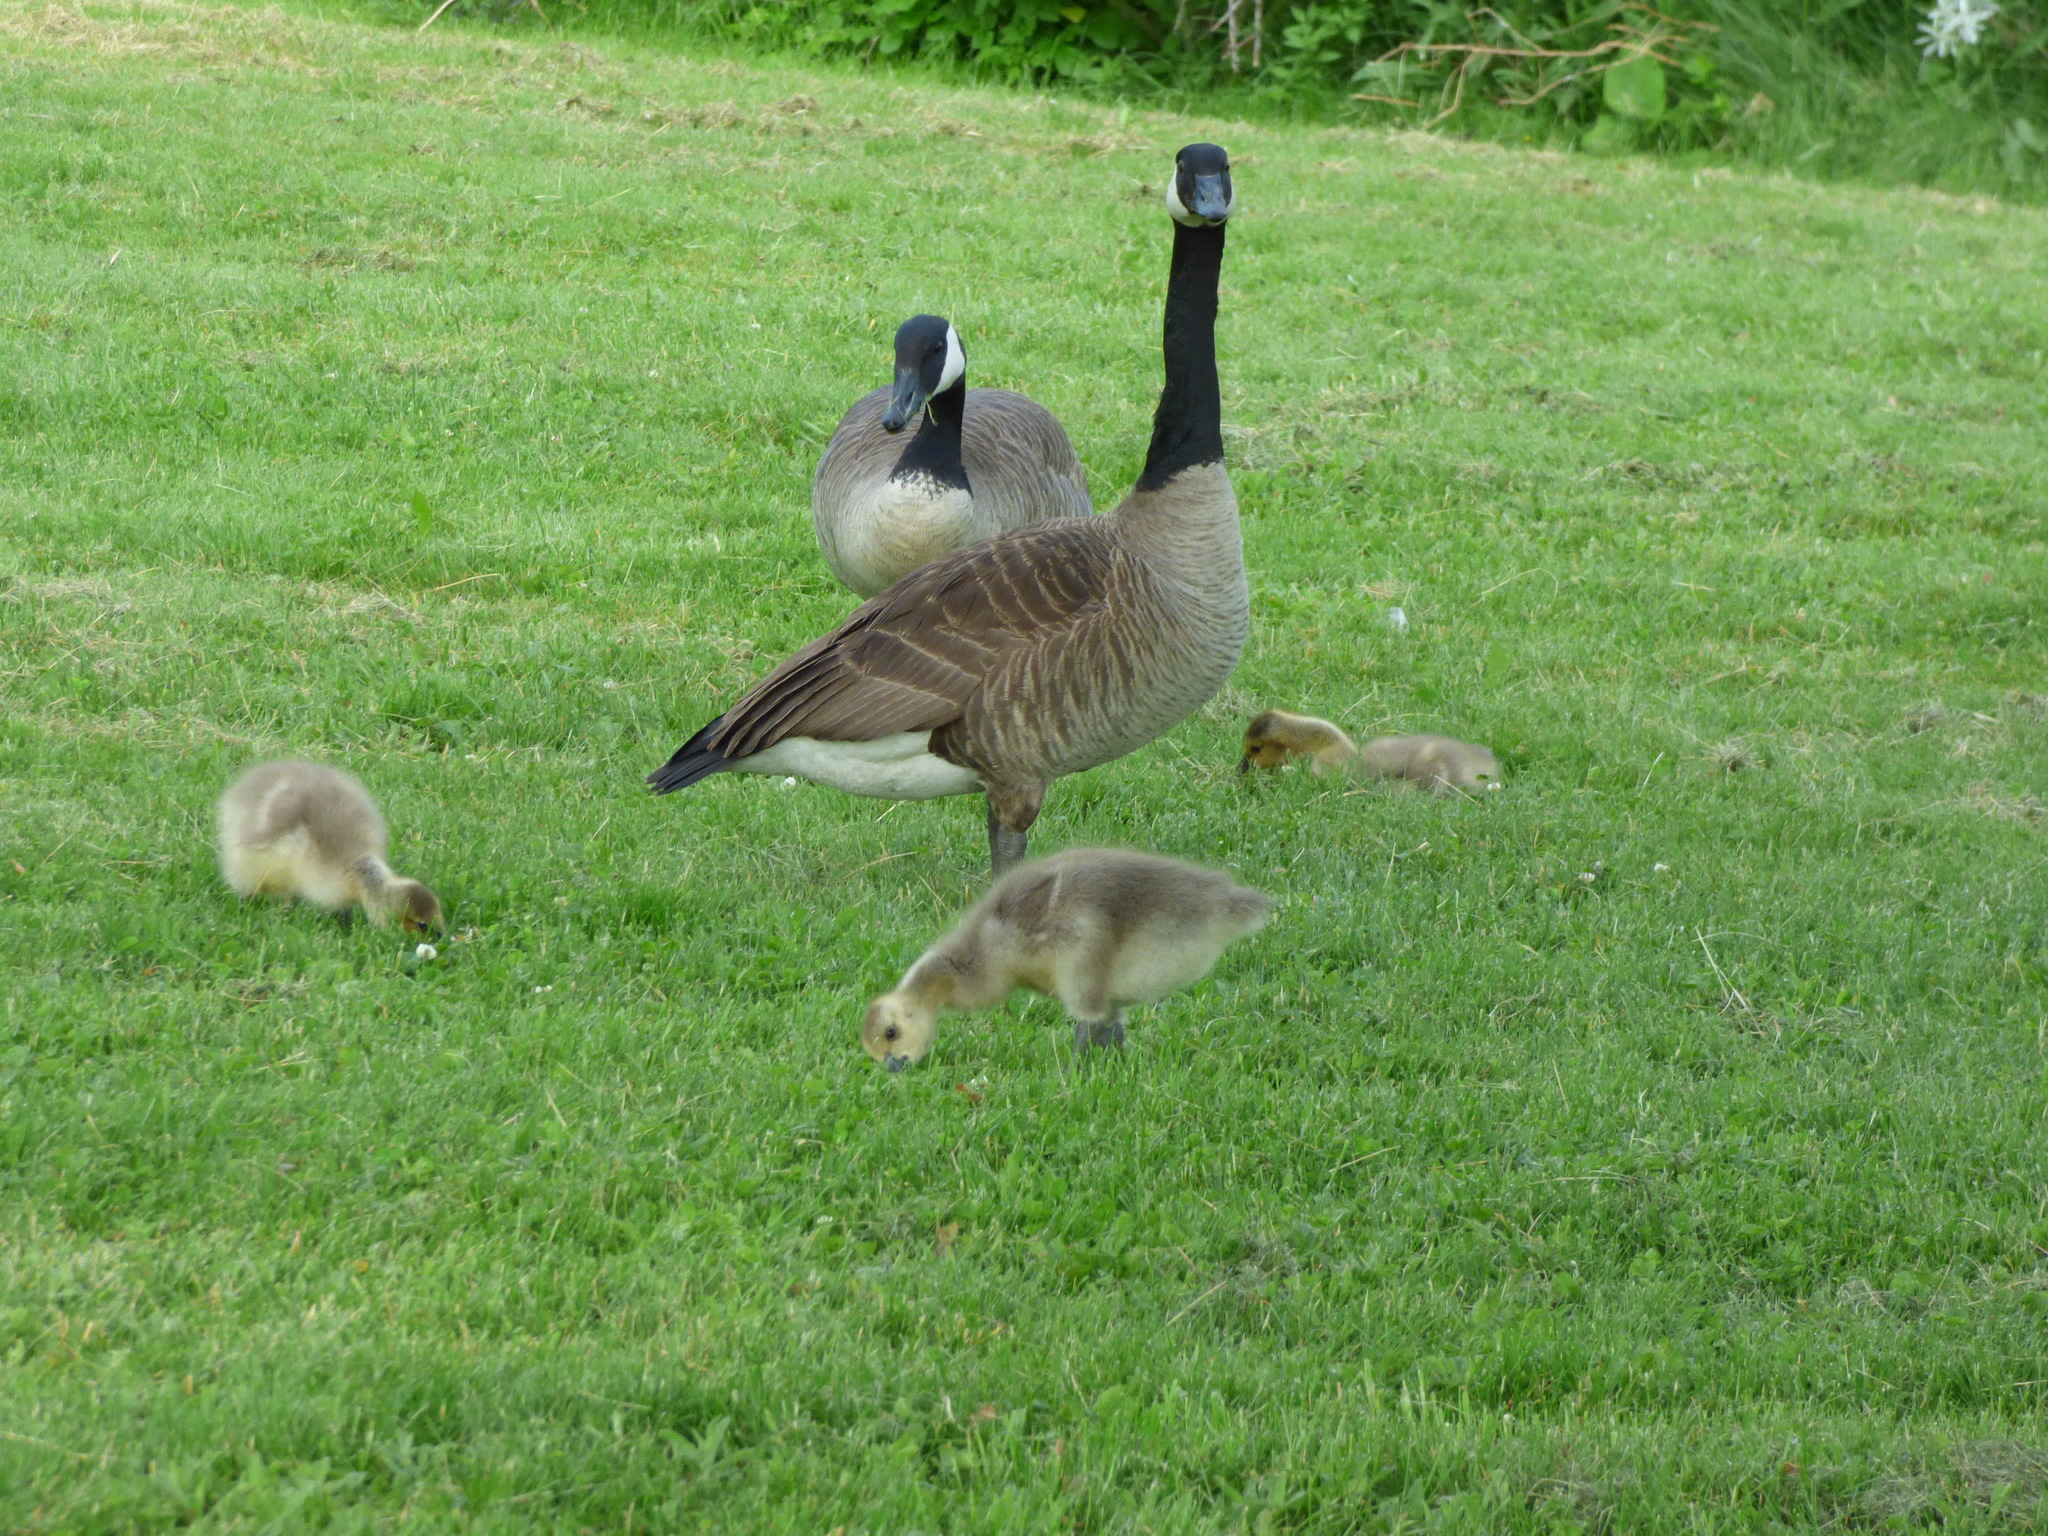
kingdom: Animalia
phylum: Chordata
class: Aves
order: Anseriformes
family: Anatidae
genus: Branta
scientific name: Branta canadensis
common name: Canada goose
